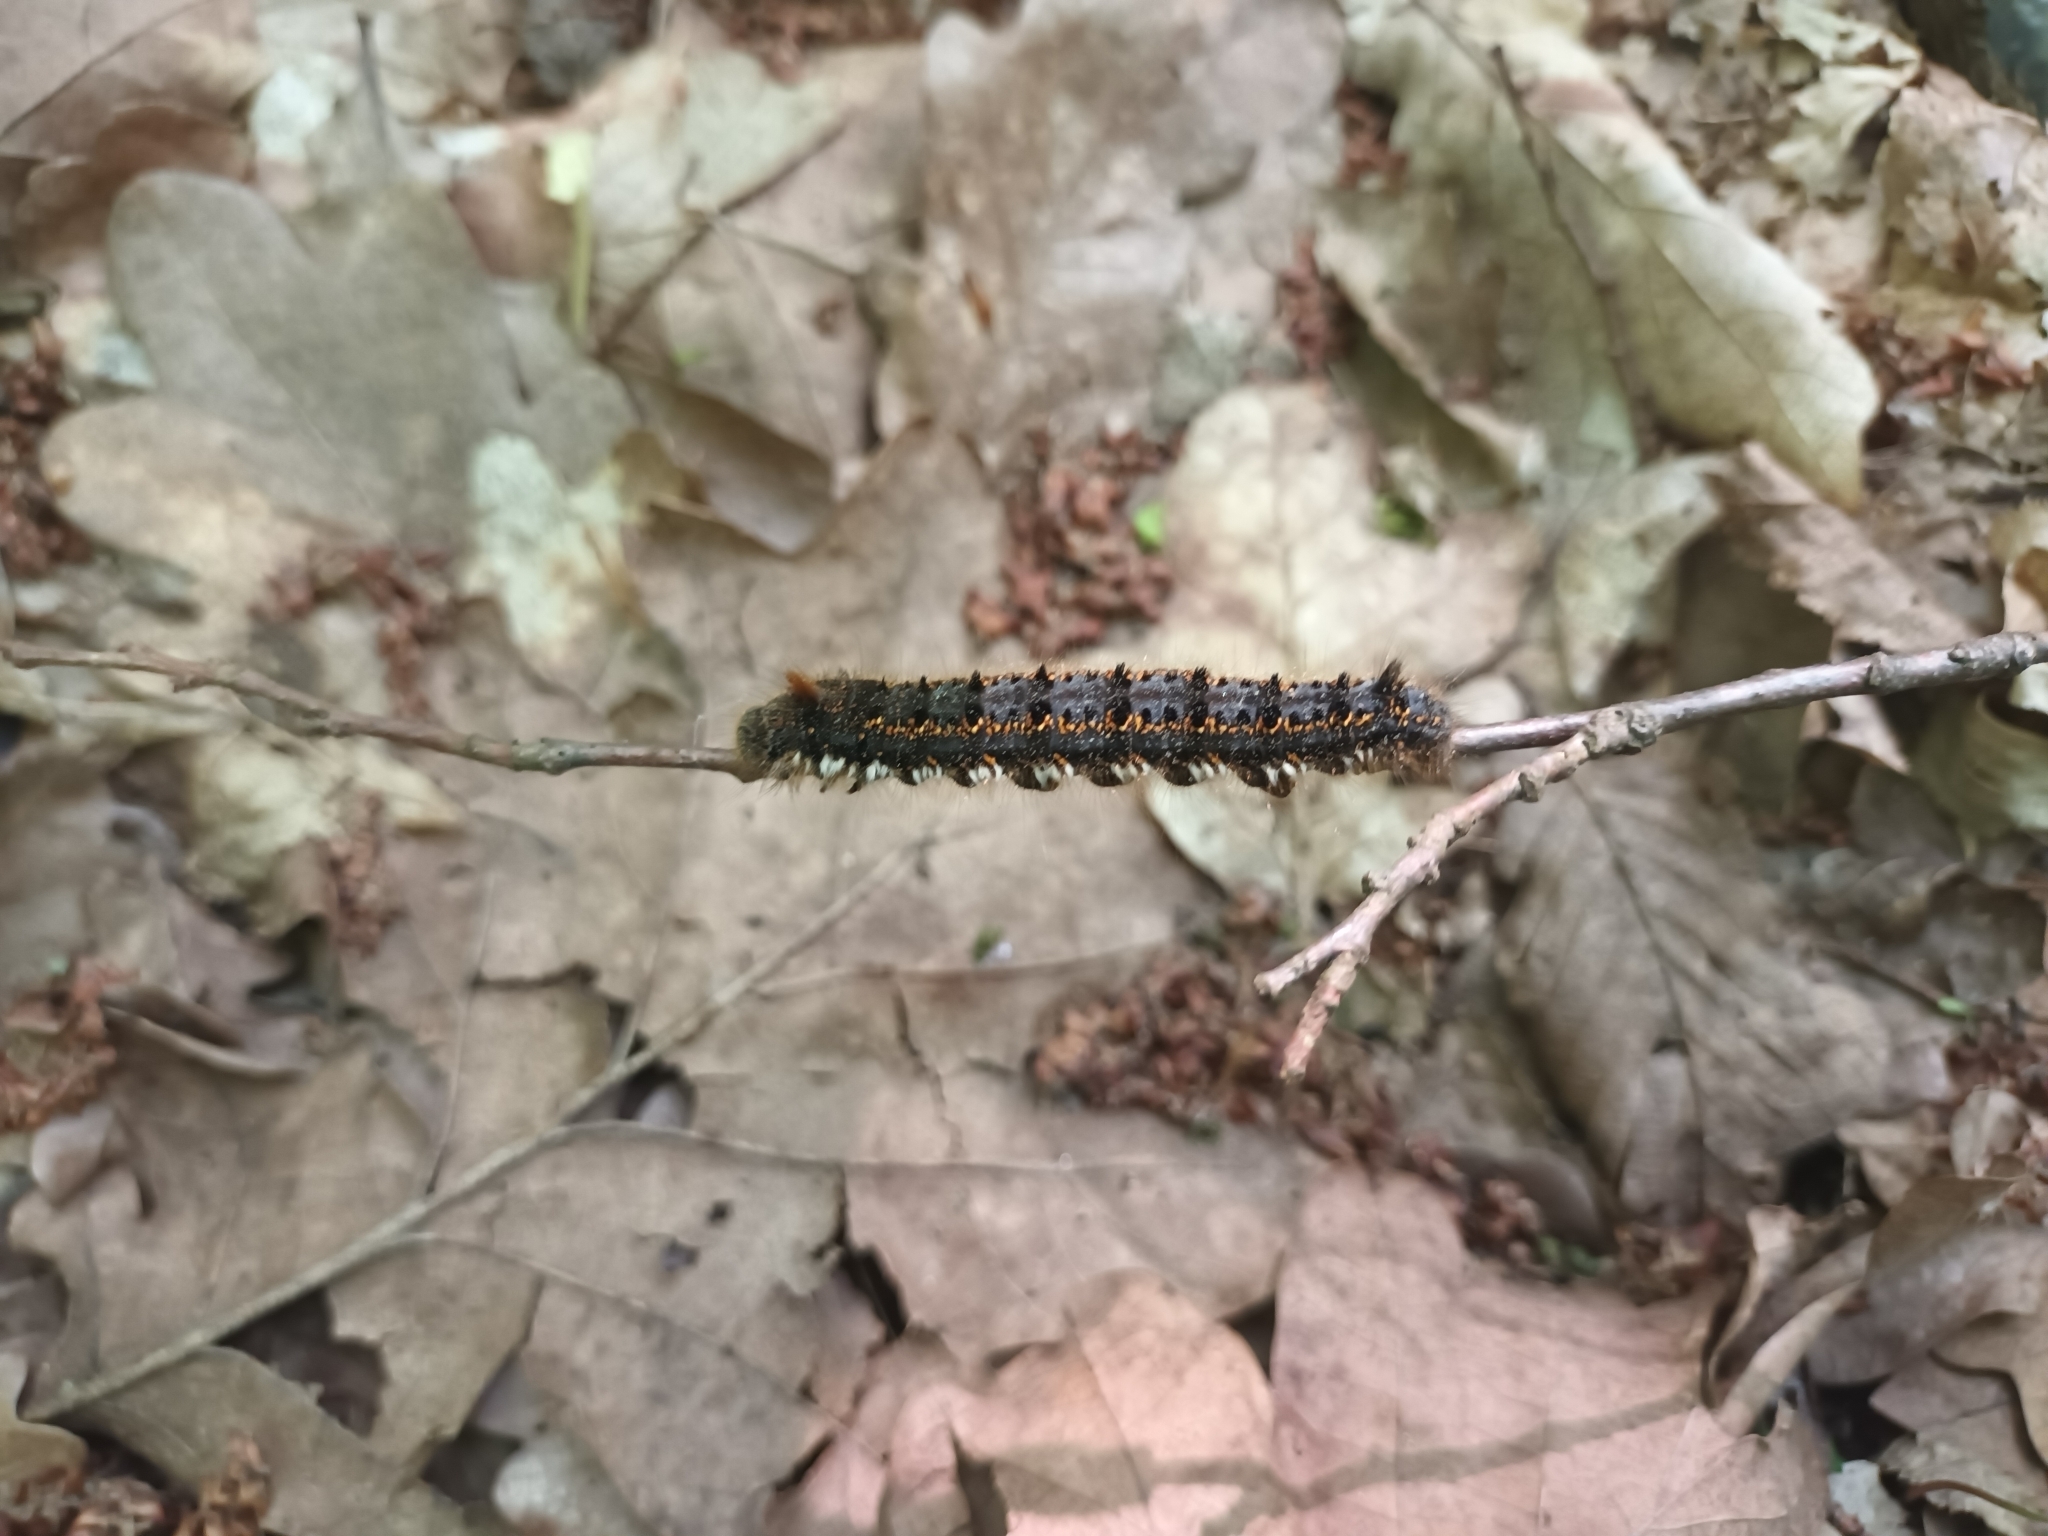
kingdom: Animalia
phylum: Arthropoda
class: Insecta
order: Lepidoptera
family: Lasiocampidae
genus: Euthrix
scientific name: Euthrix potatoria
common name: Drinker
